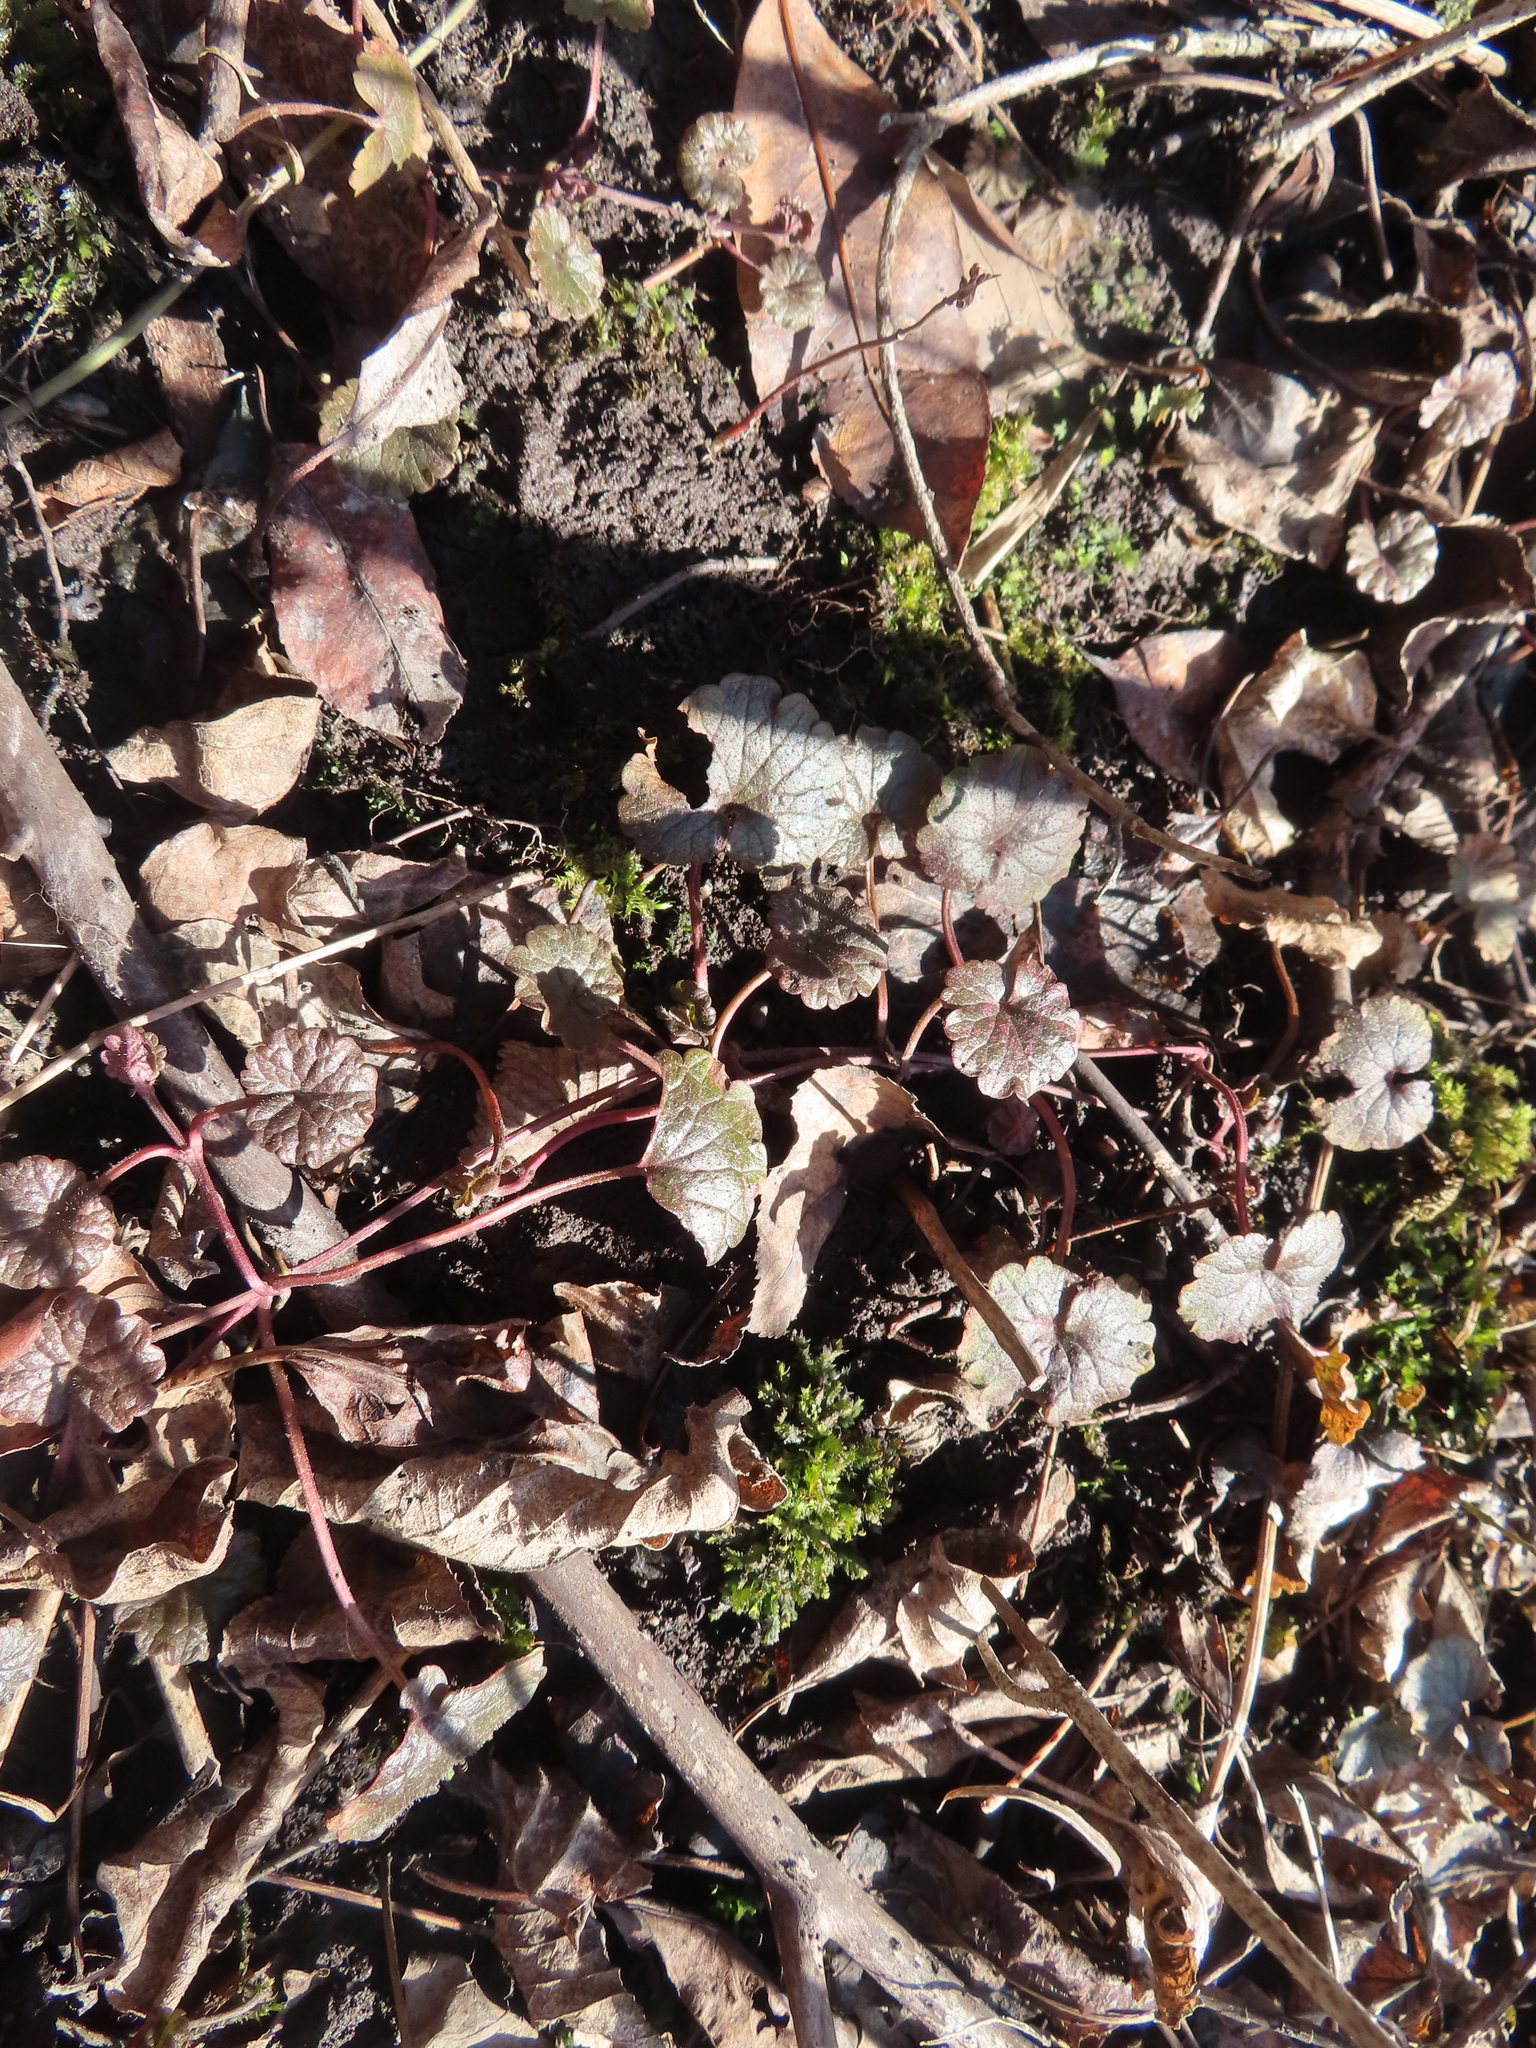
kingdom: Plantae
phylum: Tracheophyta
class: Magnoliopsida
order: Lamiales
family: Lamiaceae
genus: Glechoma
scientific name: Glechoma hederacea
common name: Ground ivy
